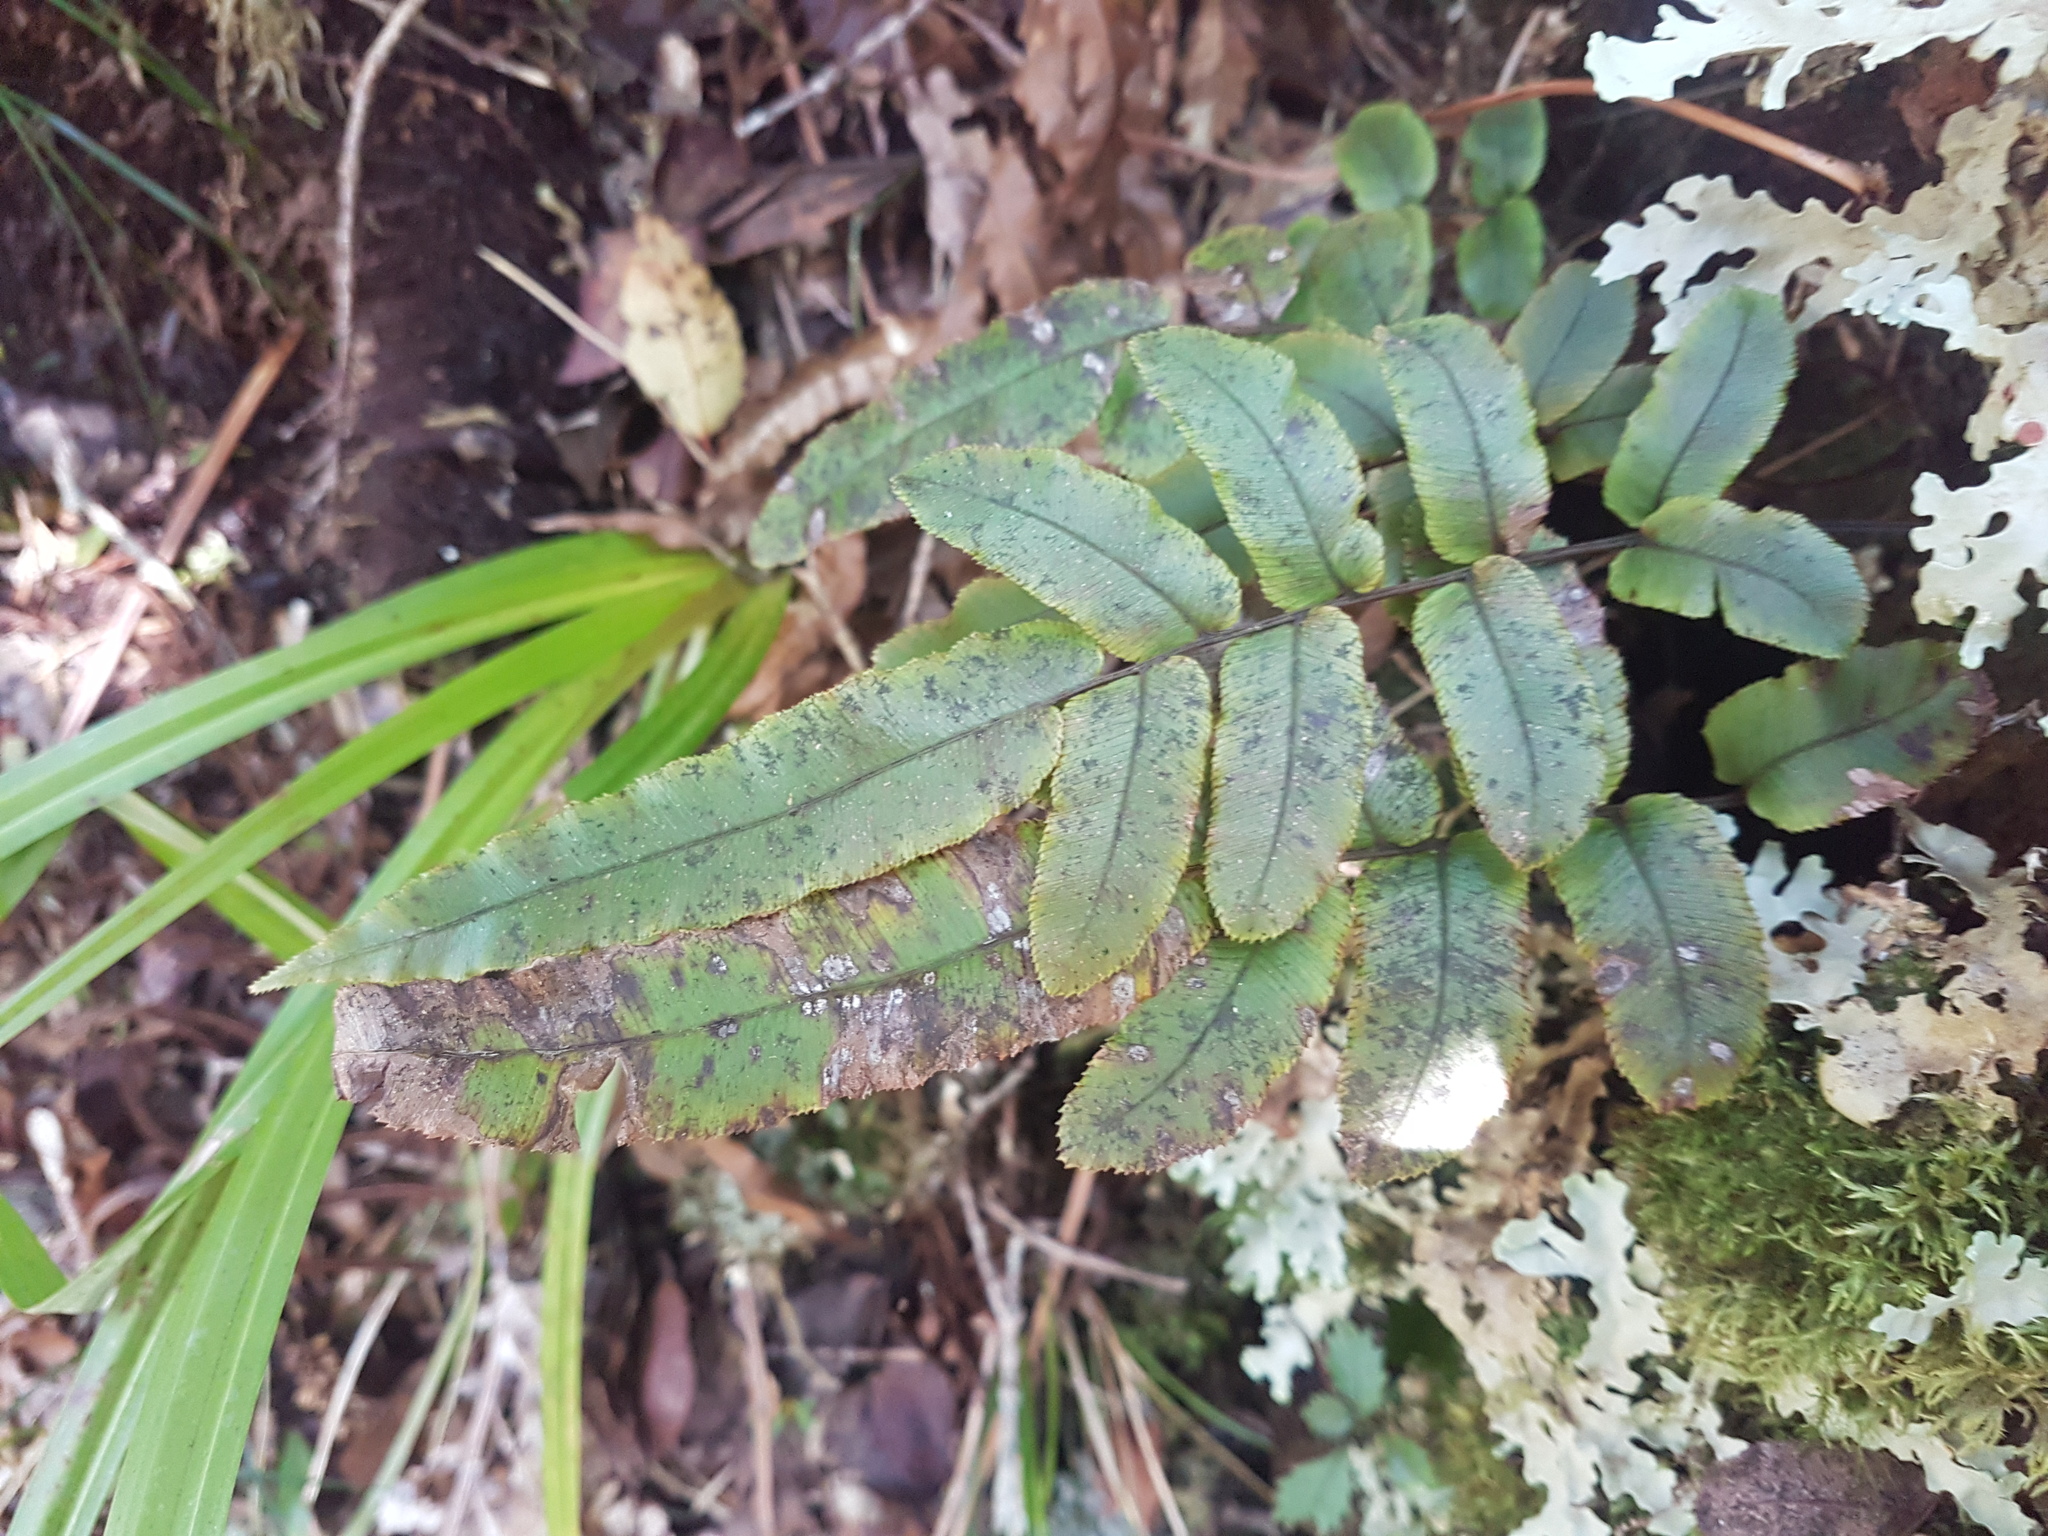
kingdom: Plantae
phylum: Tracheophyta
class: Polypodiopsida
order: Polypodiales
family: Blechnaceae
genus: Parablechnum
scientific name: Parablechnum procerum
